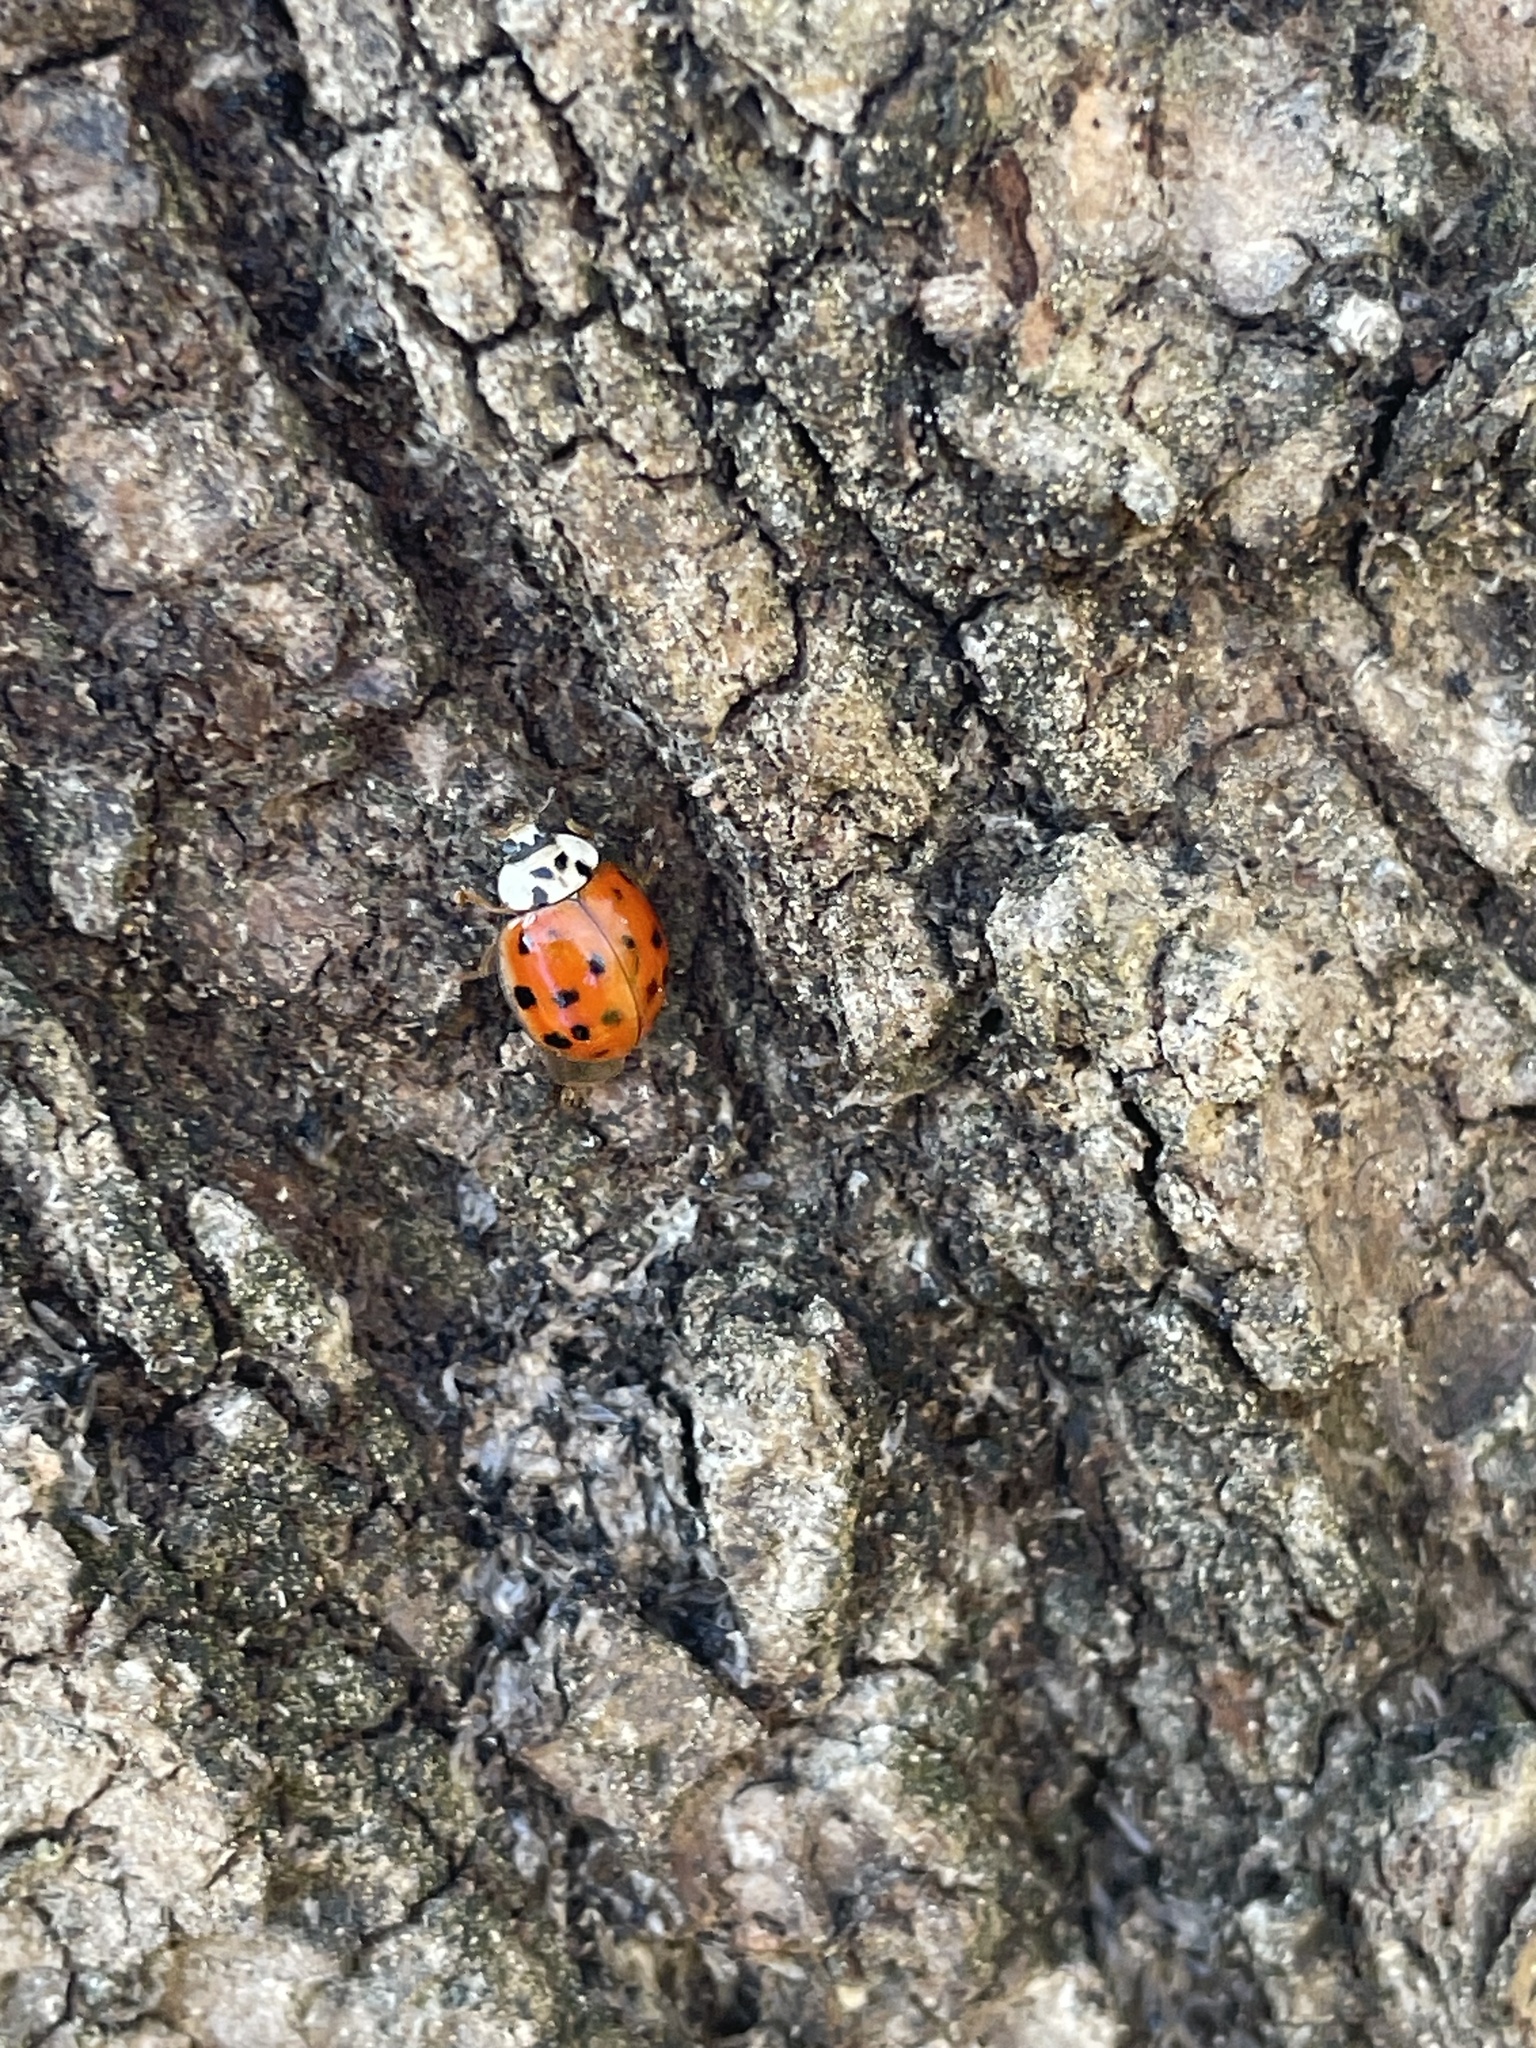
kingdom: Animalia
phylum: Arthropoda
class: Insecta
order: Coleoptera
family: Coccinellidae
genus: Harmonia
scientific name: Harmonia axyridis
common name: Harlequin ladybird
